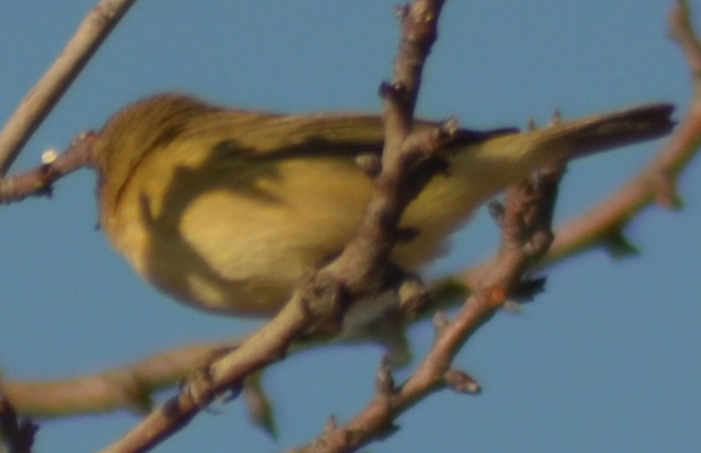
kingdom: Animalia
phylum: Chordata
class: Aves
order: Passeriformes
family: Phylloscopidae
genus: Phylloscopus
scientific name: Phylloscopus collybita
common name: Common chiffchaff
